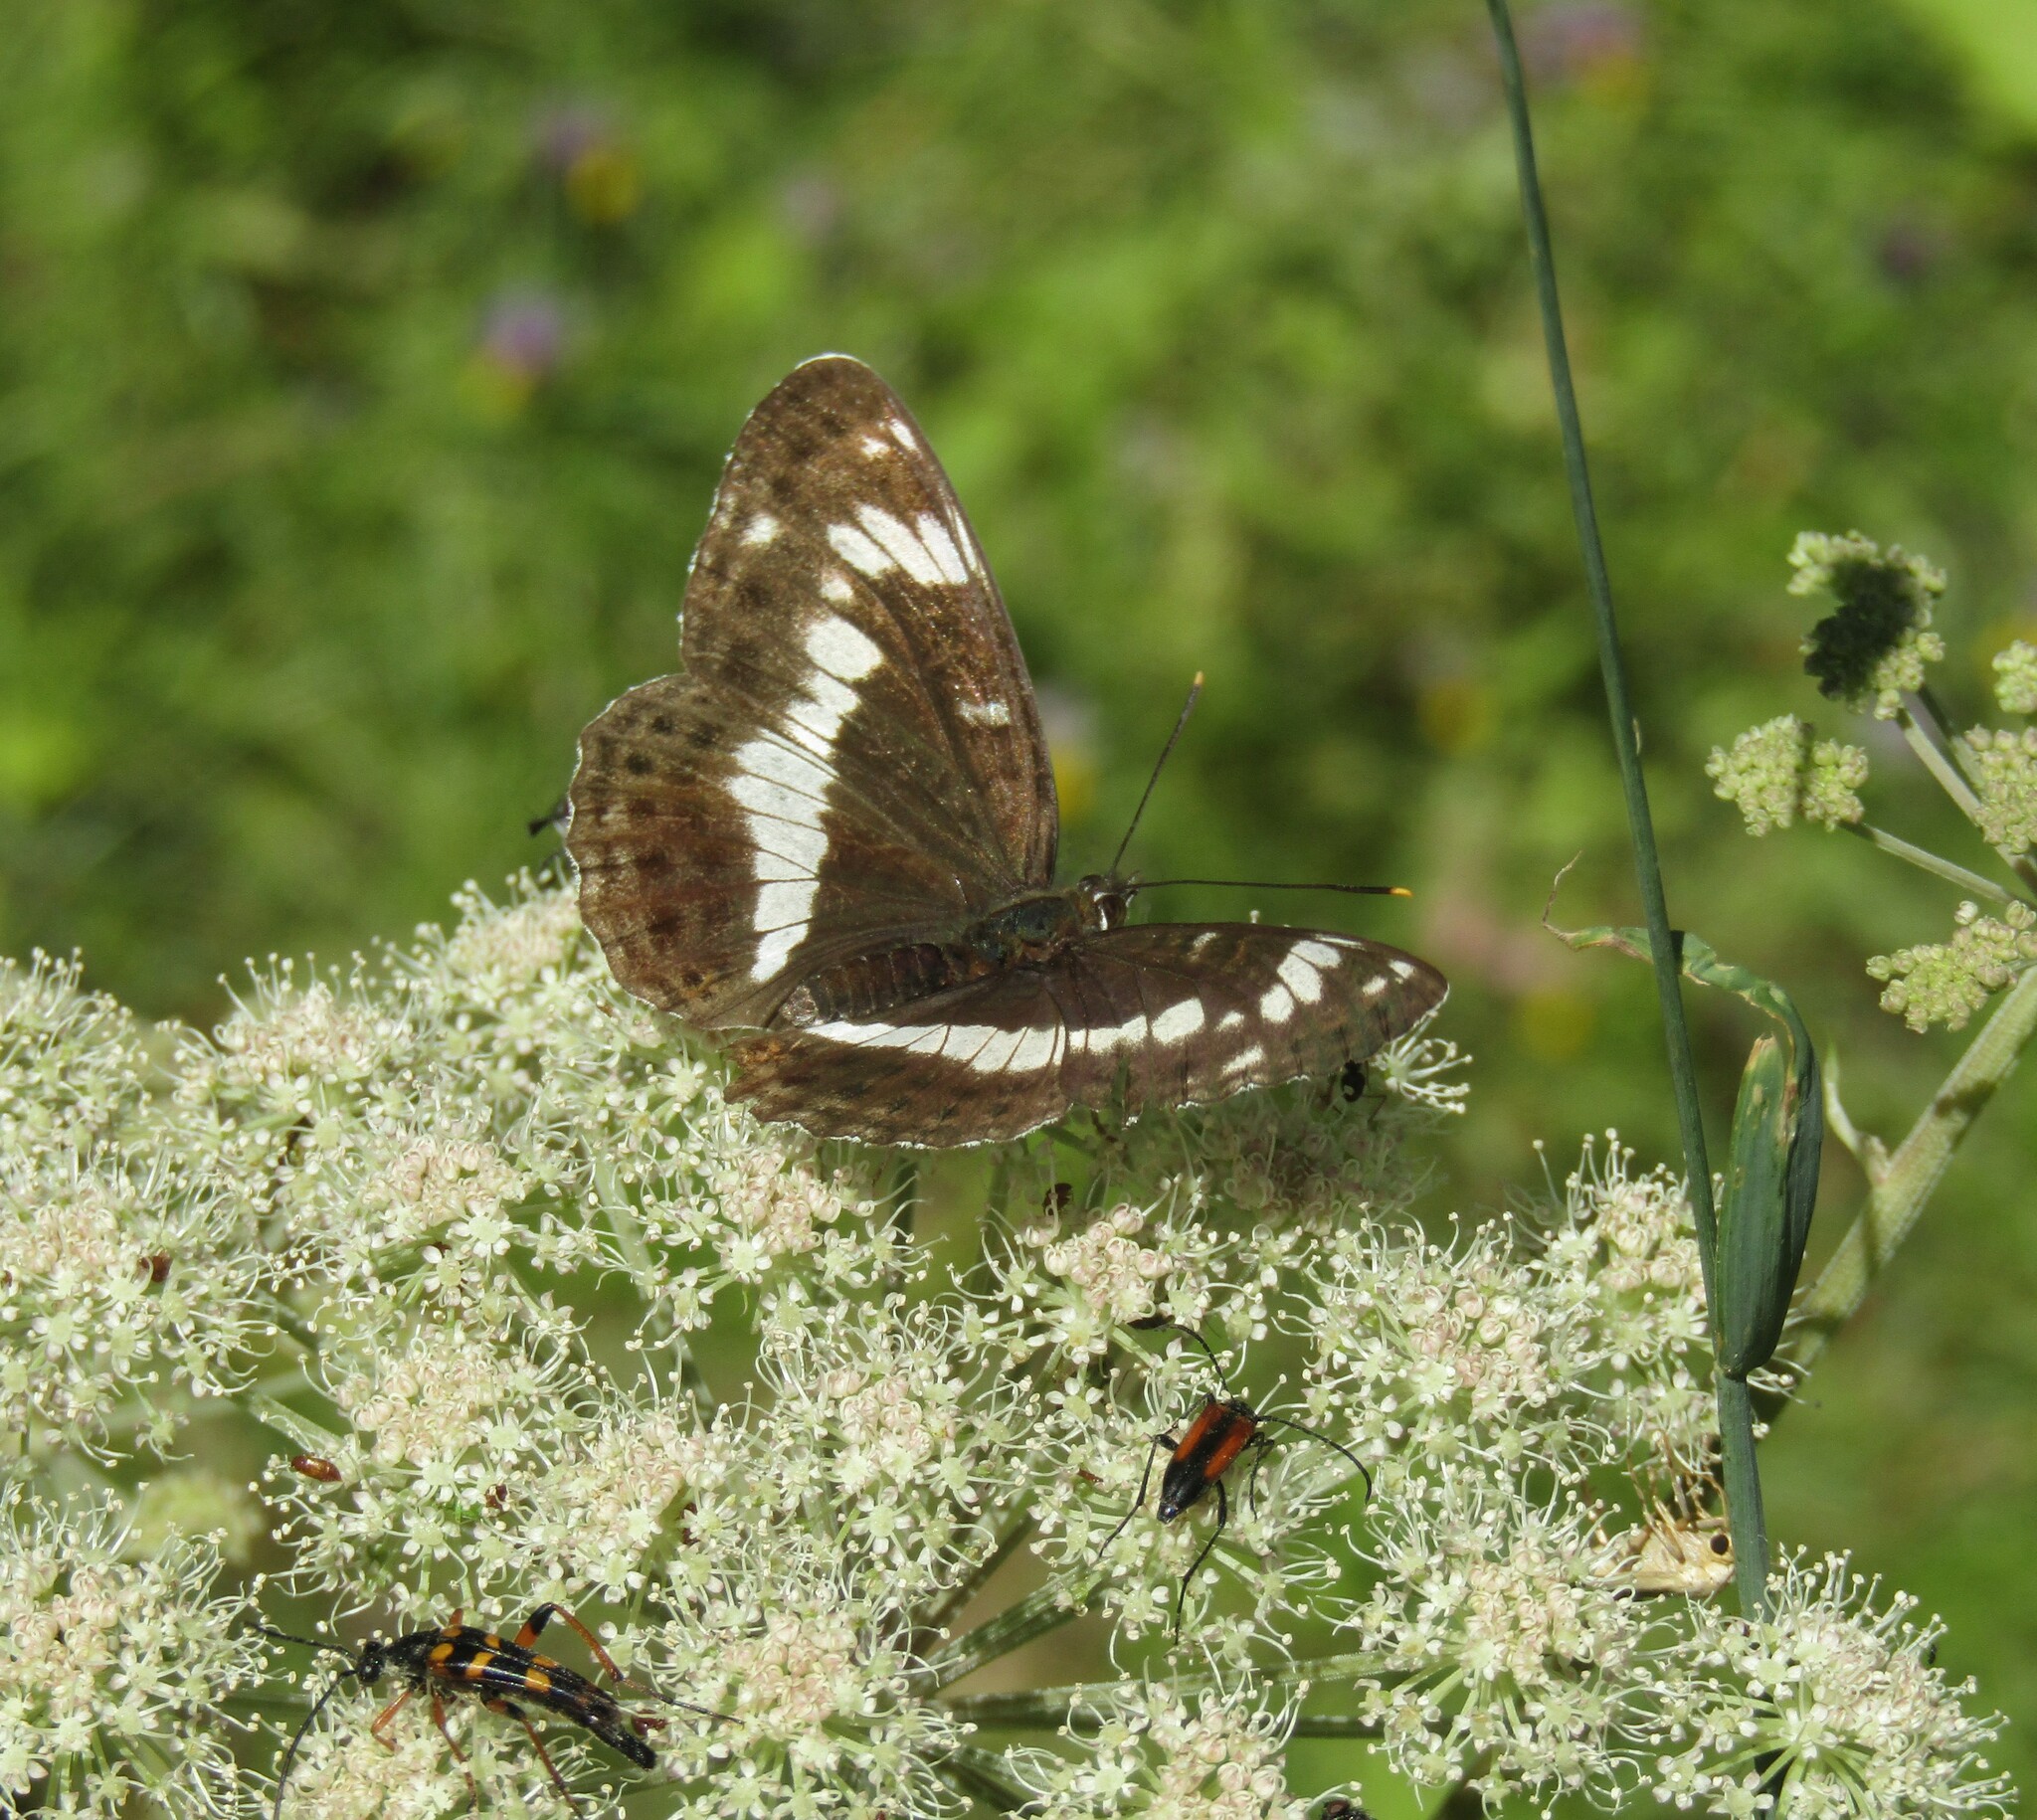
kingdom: Animalia
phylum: Arthropoda
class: Insecta
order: Lepidoptera
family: Nymphalidae
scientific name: Nymphalidae
